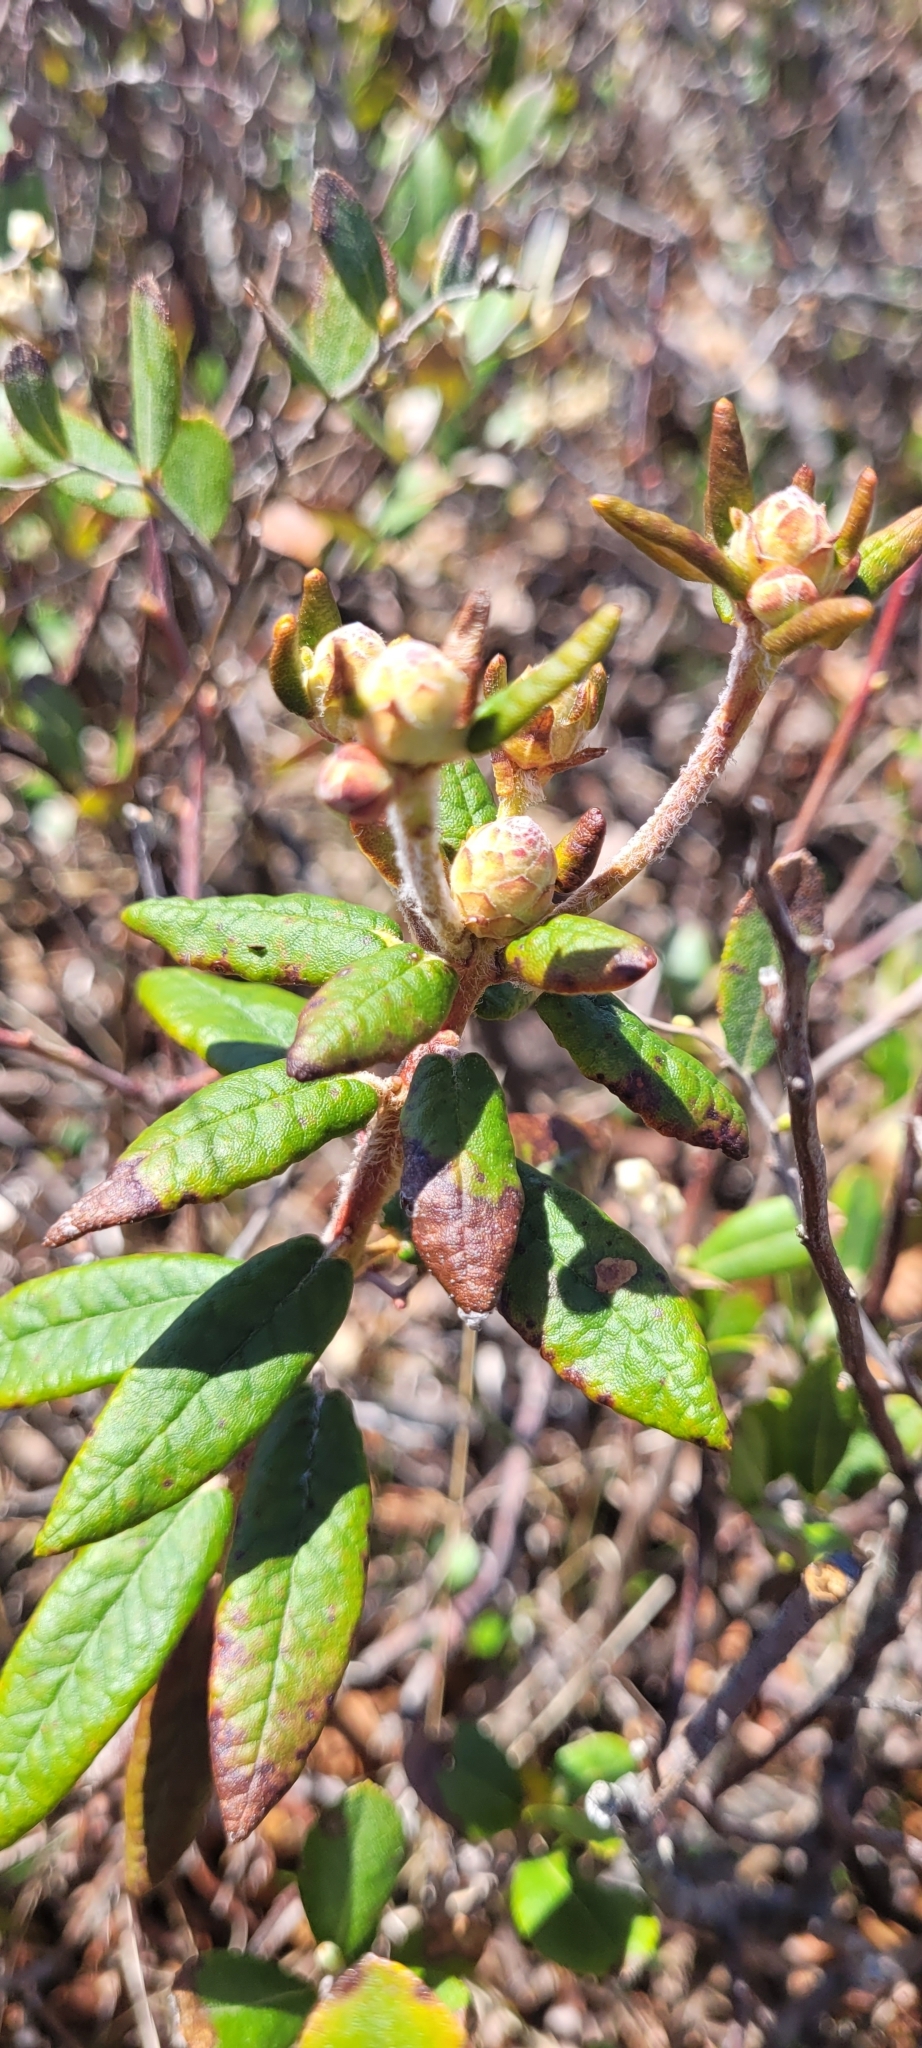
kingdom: Plantae
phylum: Tracheophyta
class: Magnoliopsida
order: Ericales
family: Ericaceae
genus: Rhododendron
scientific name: Rhododendron groenlandicum
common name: Bog labrador tea
